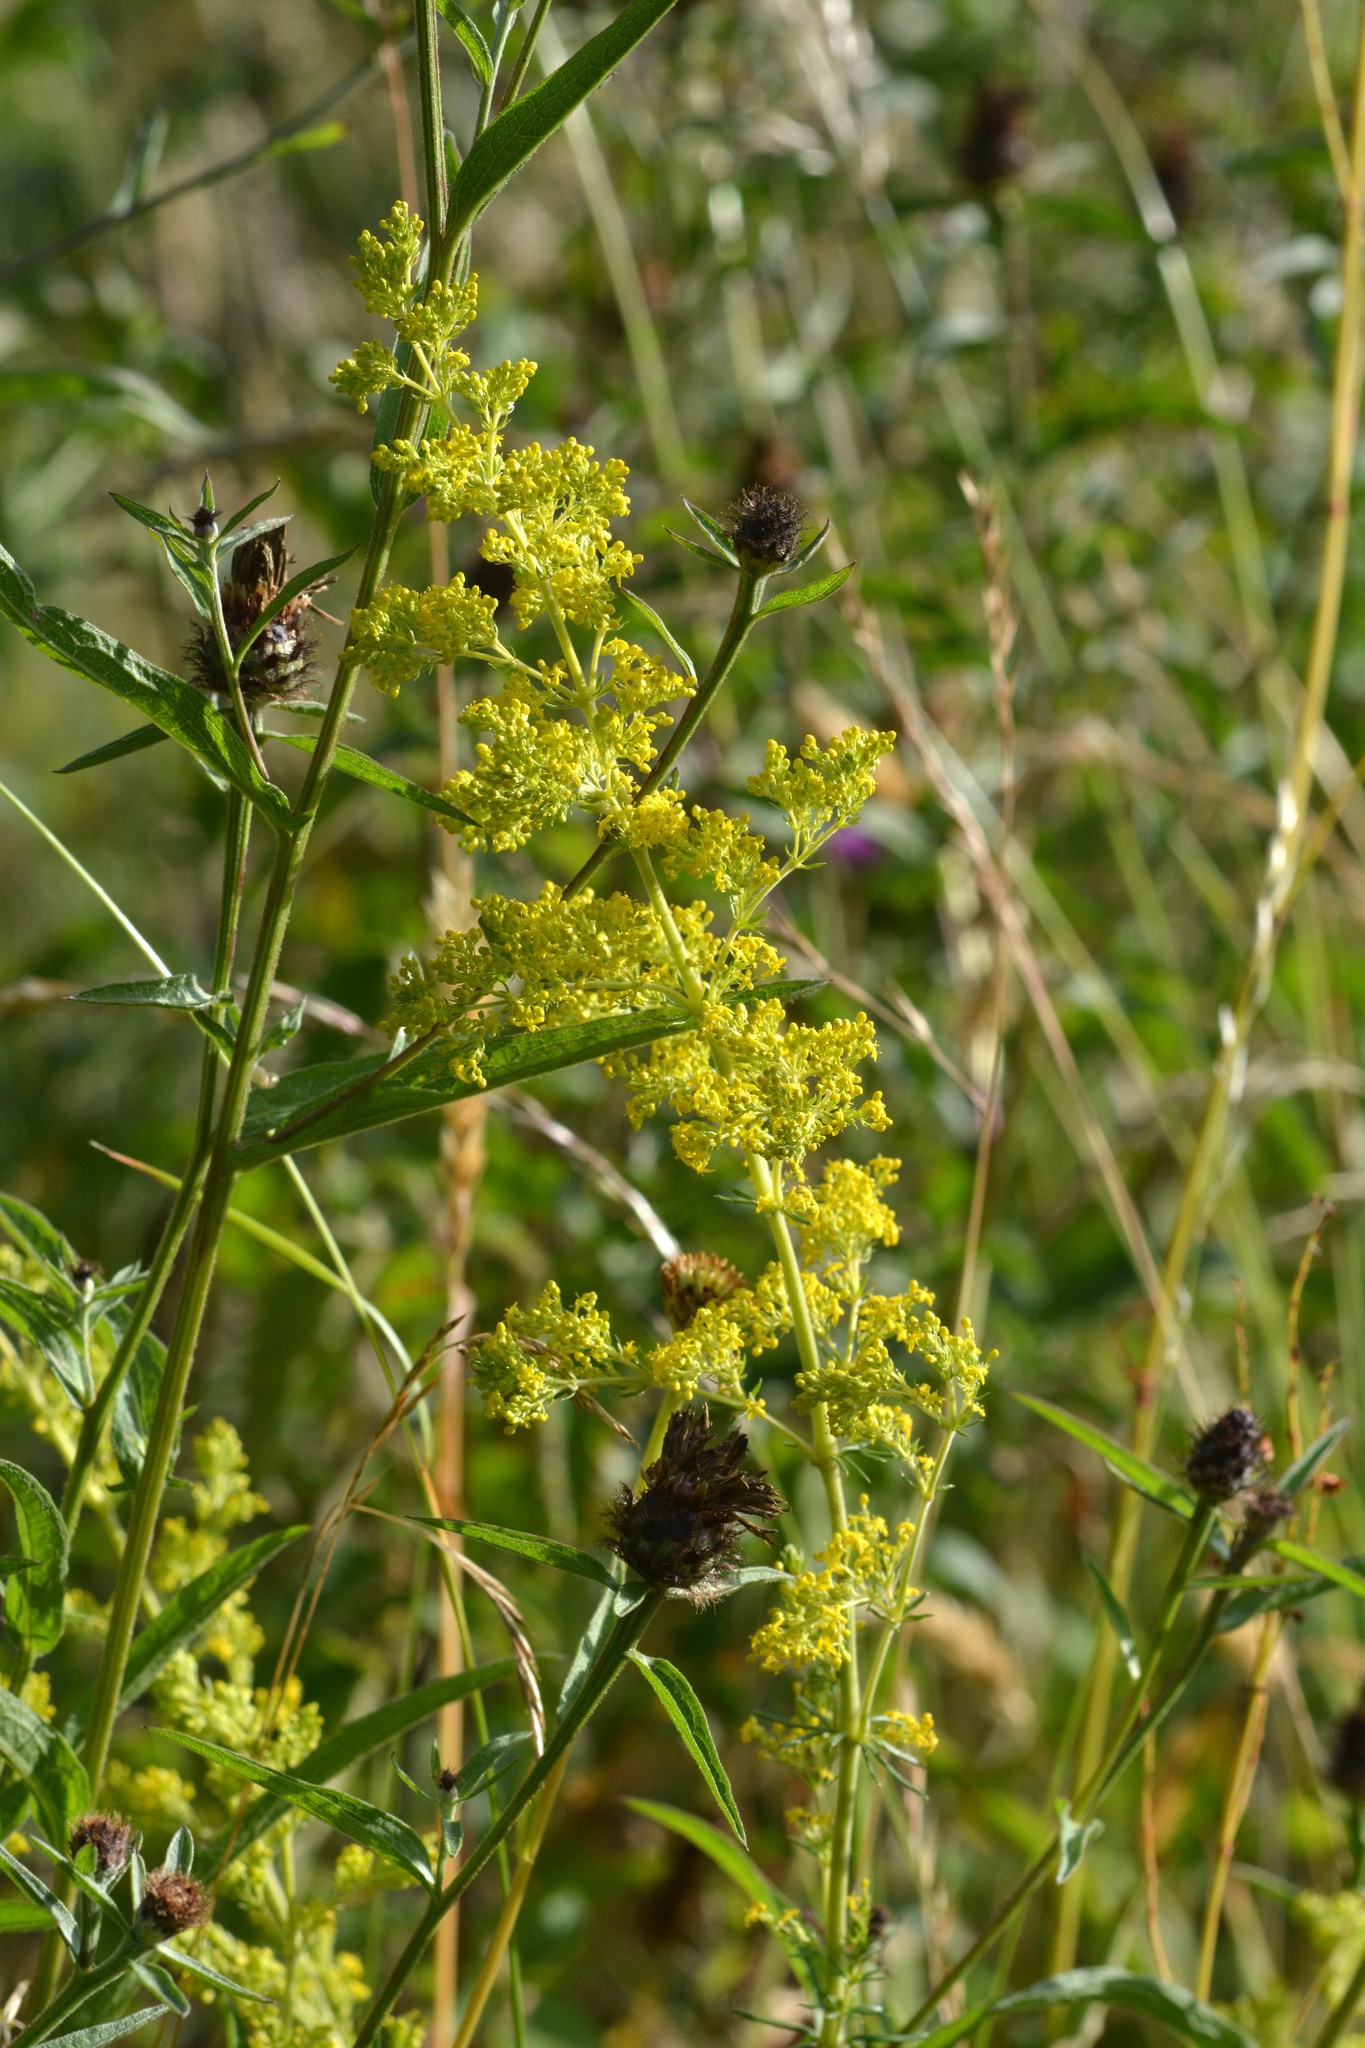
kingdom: Plantae
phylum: Tracheophyta
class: Magnoliopsida
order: Gentianales
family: Rubiaceae
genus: Galium
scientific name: Galium verum
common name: Lady's bedstraw
